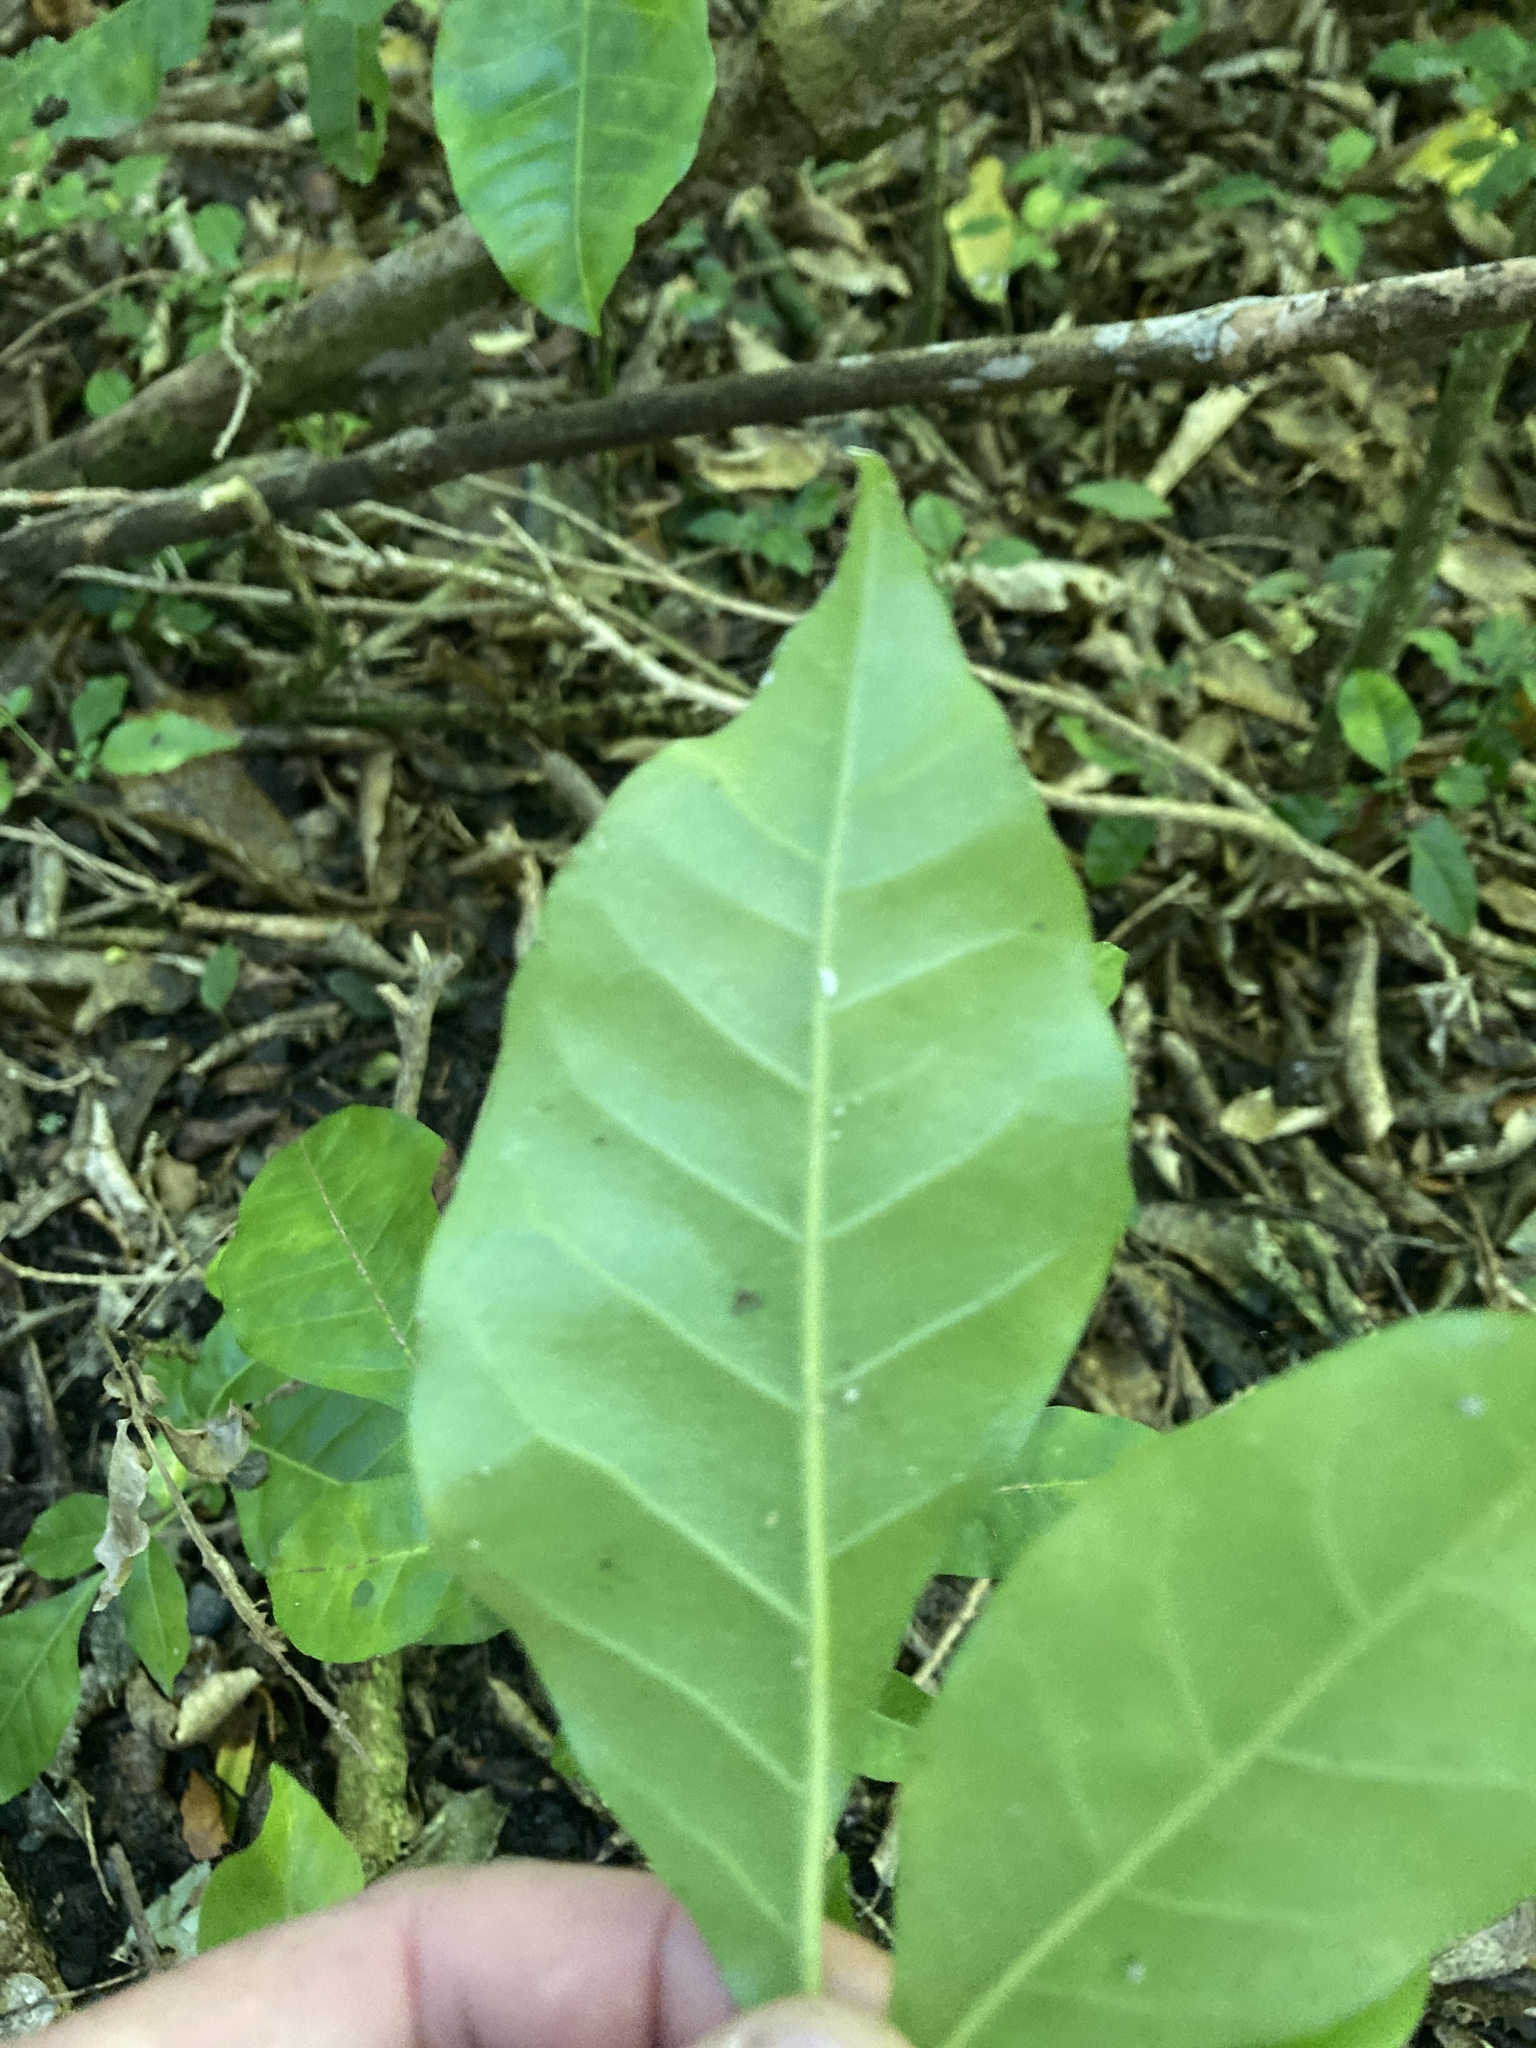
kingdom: Plantae
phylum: Tracheophyta
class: Magnoliopsida
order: Sapindales
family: Meliaceae
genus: Didymocheton
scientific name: Didymocheton spectabilis
